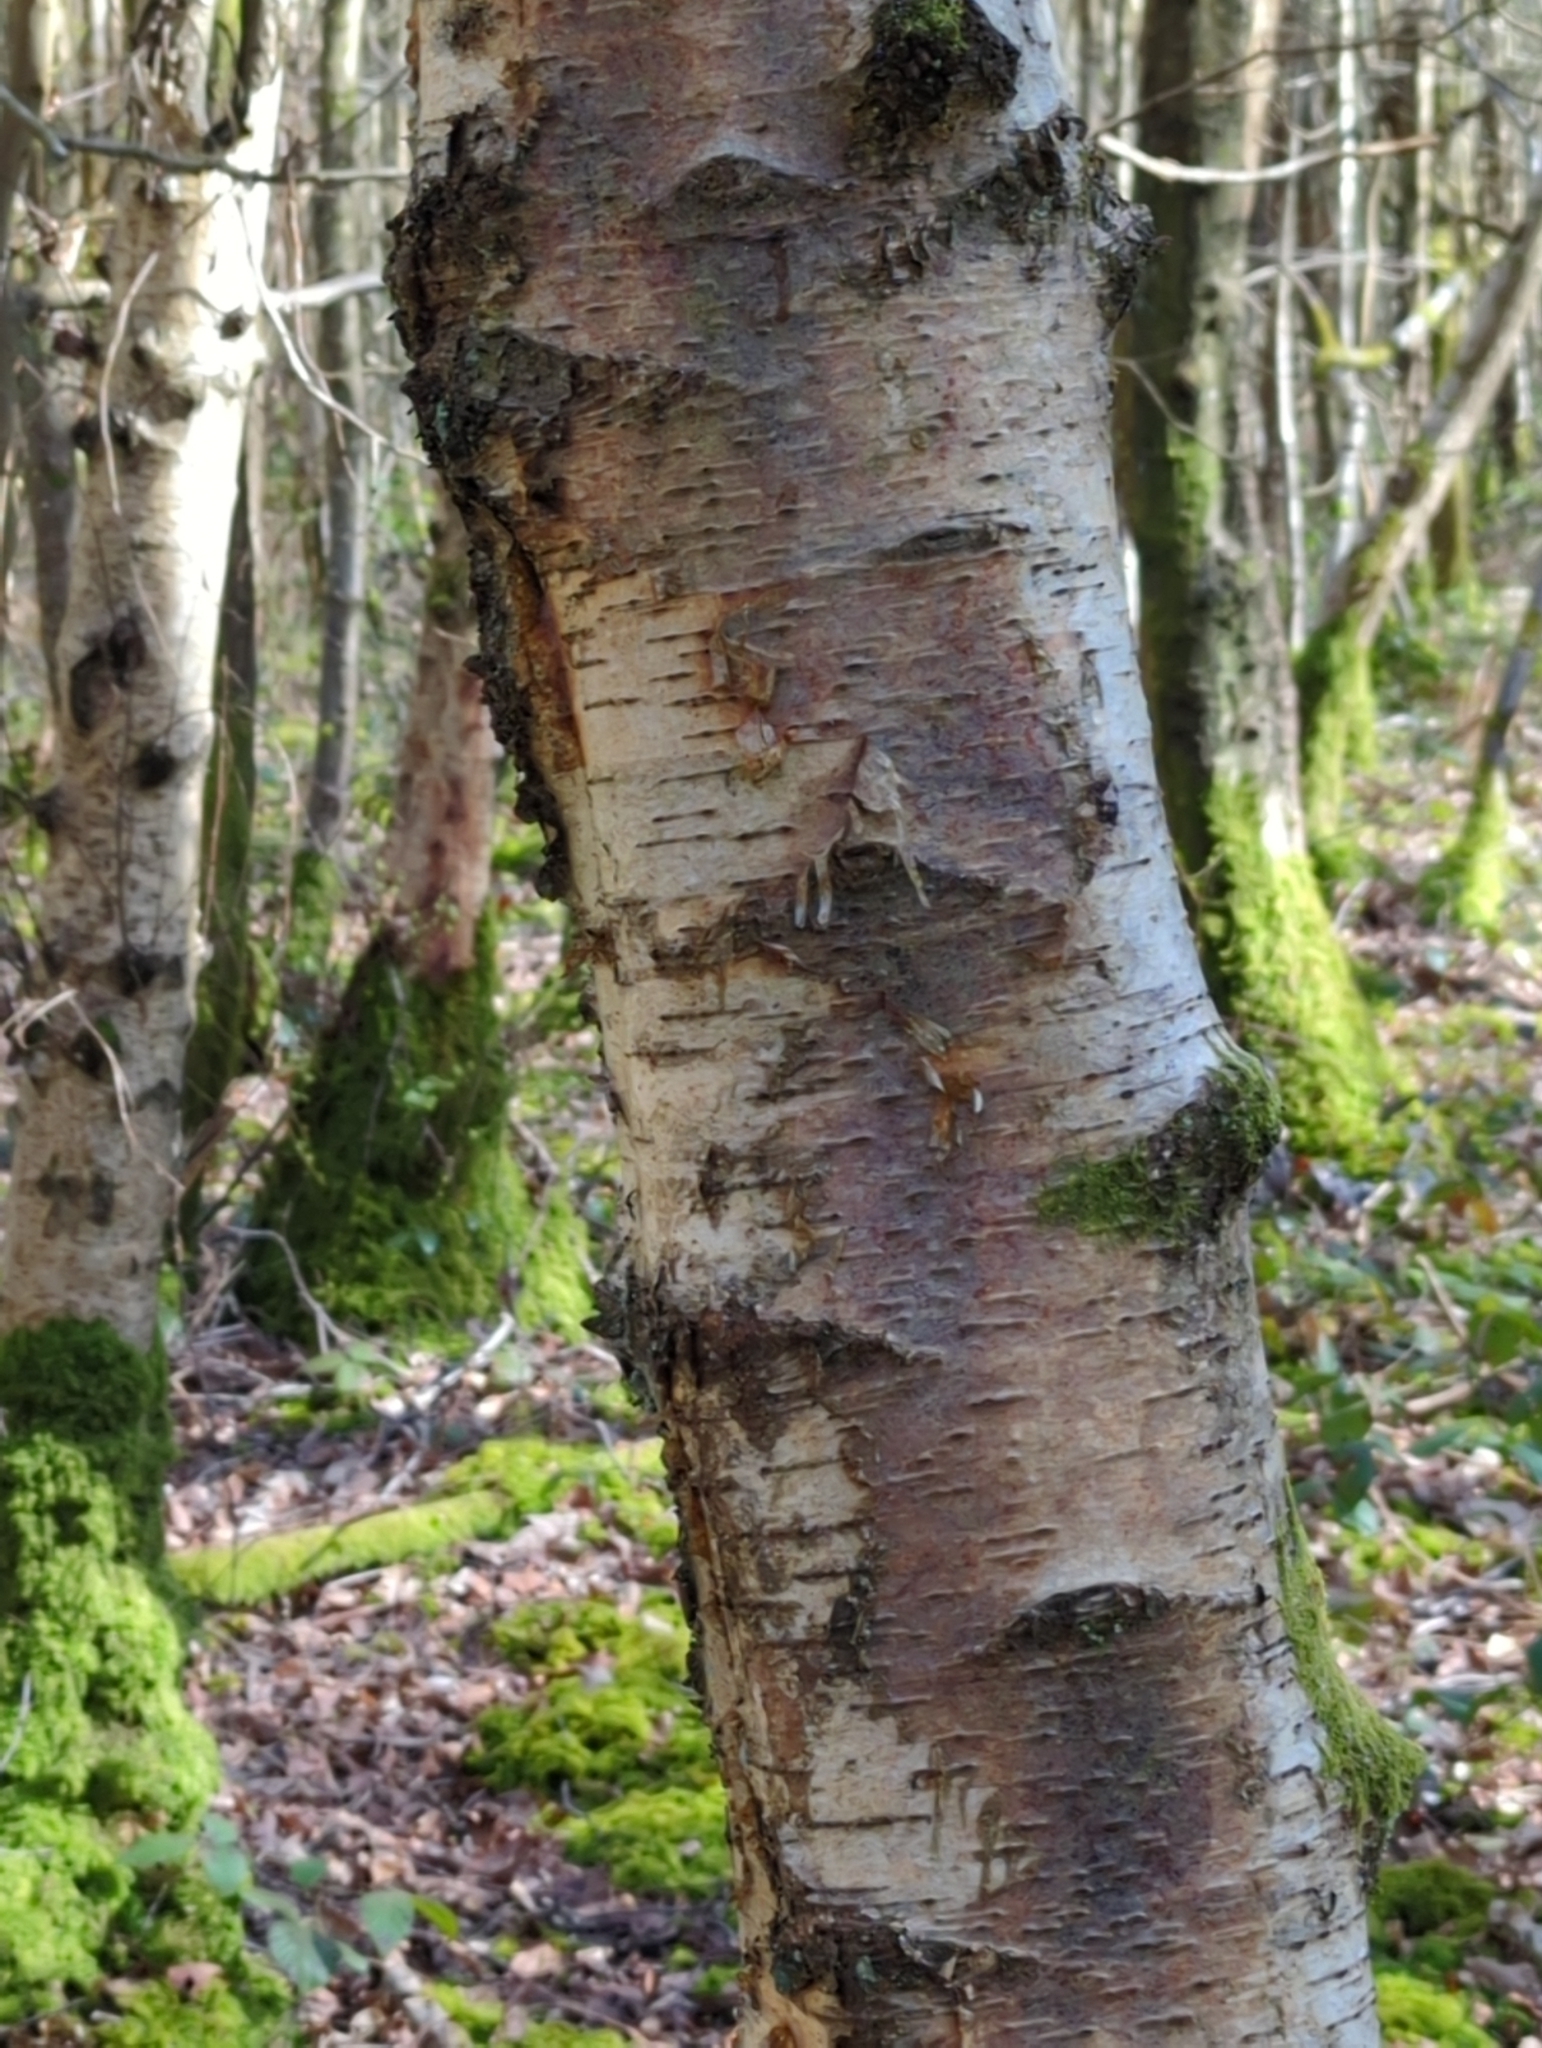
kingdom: Plantae
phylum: Tracheophyta
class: Magnoliopsida
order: Fagales
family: Betulaceae
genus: Betula
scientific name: Betula pendula
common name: Silver birch
